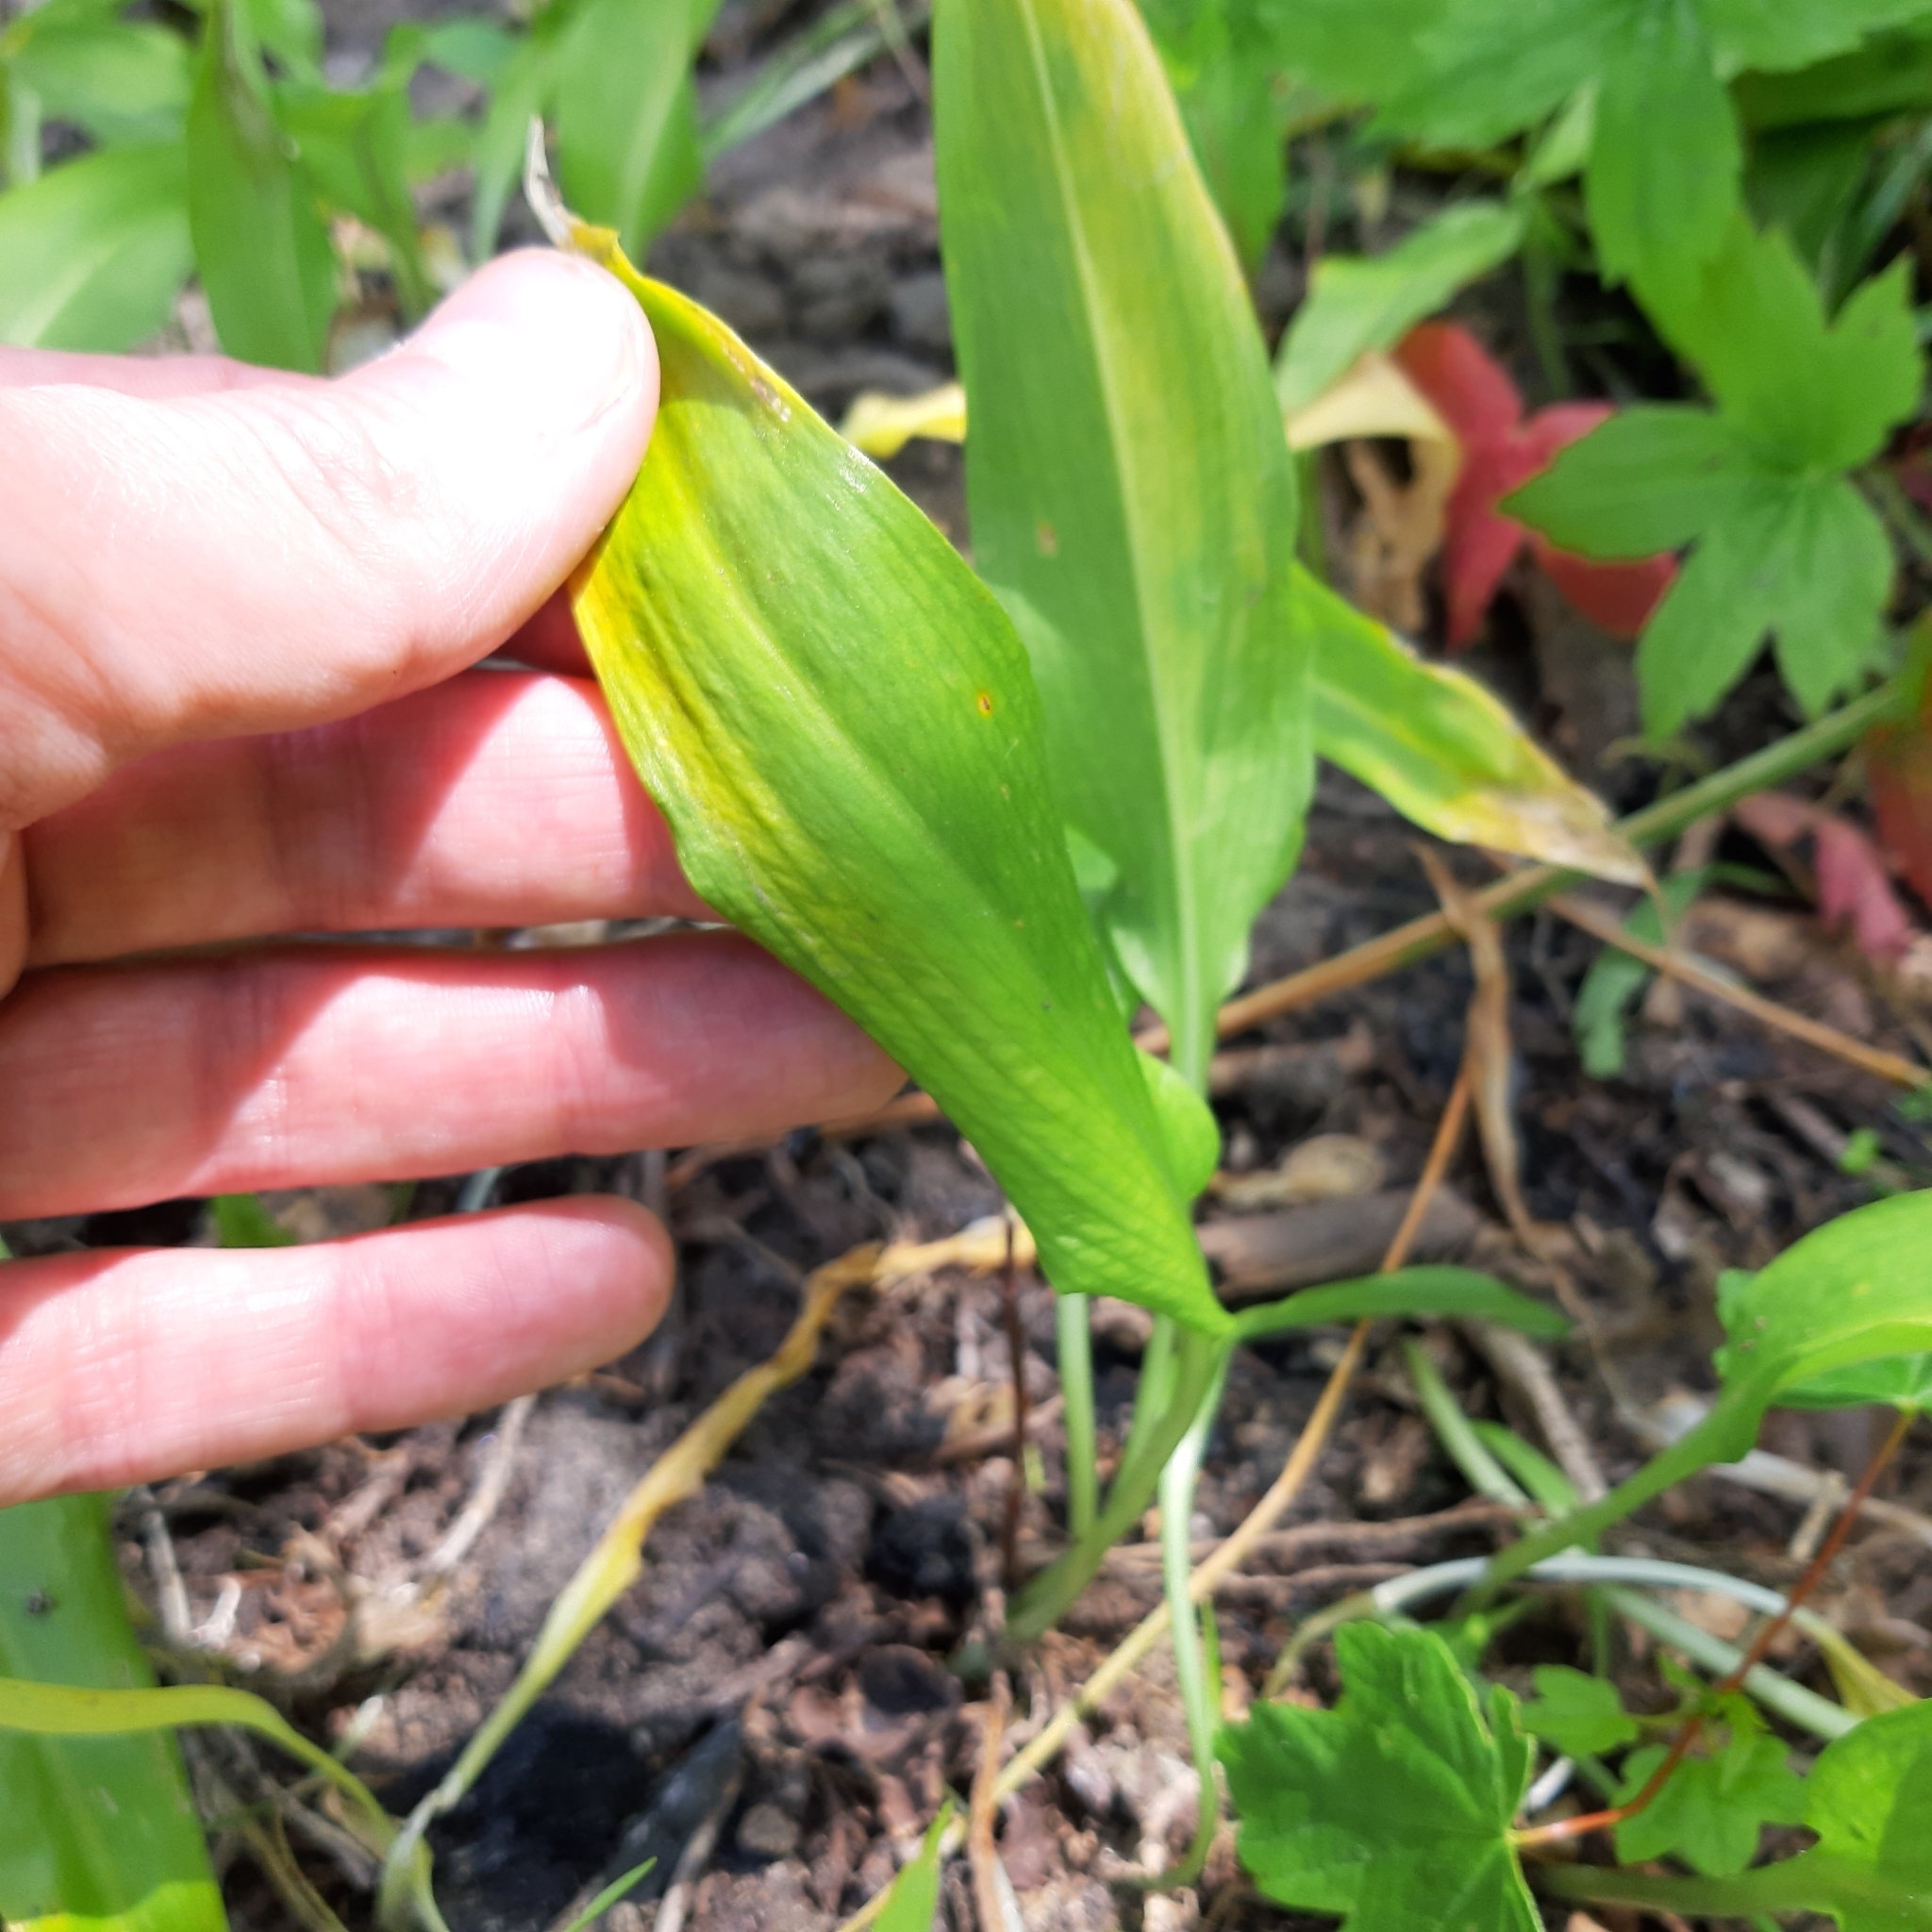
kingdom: Plantae
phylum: Tracheophyta
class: Liliopsida
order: Asparagales
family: Asparagaceae
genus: Convallaria
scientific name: Convallaria majalis
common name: Lily-of-the-valley
